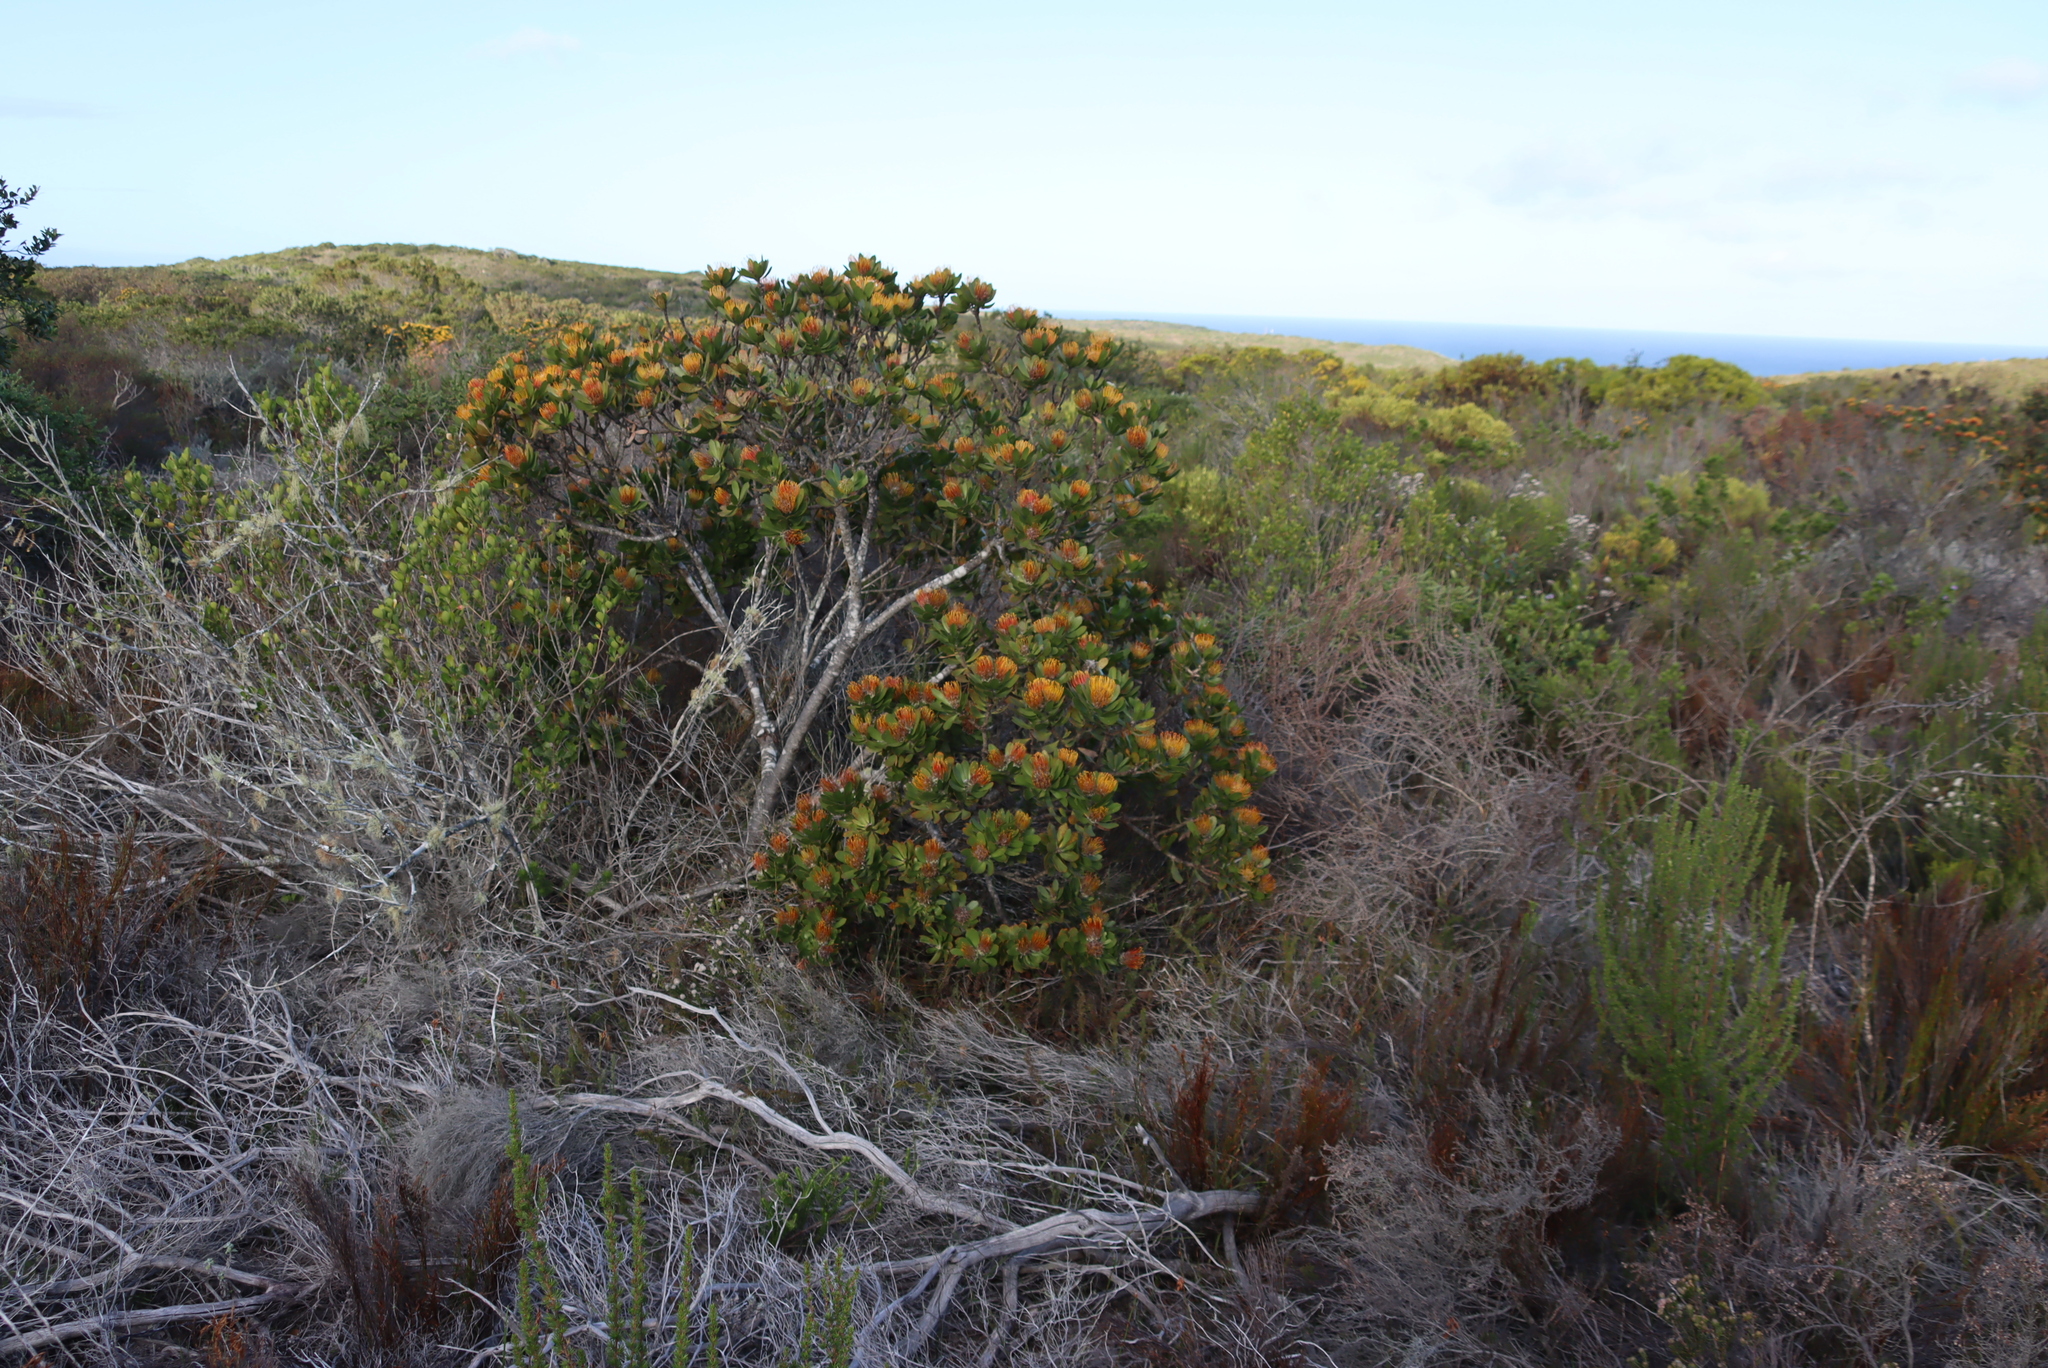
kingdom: Plantae
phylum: Tracheophyta
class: Magnoliopsida
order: Proteales
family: Proteaceae
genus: Leucospermum
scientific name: Leucospermum praecox
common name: Mossel bay pincushion
